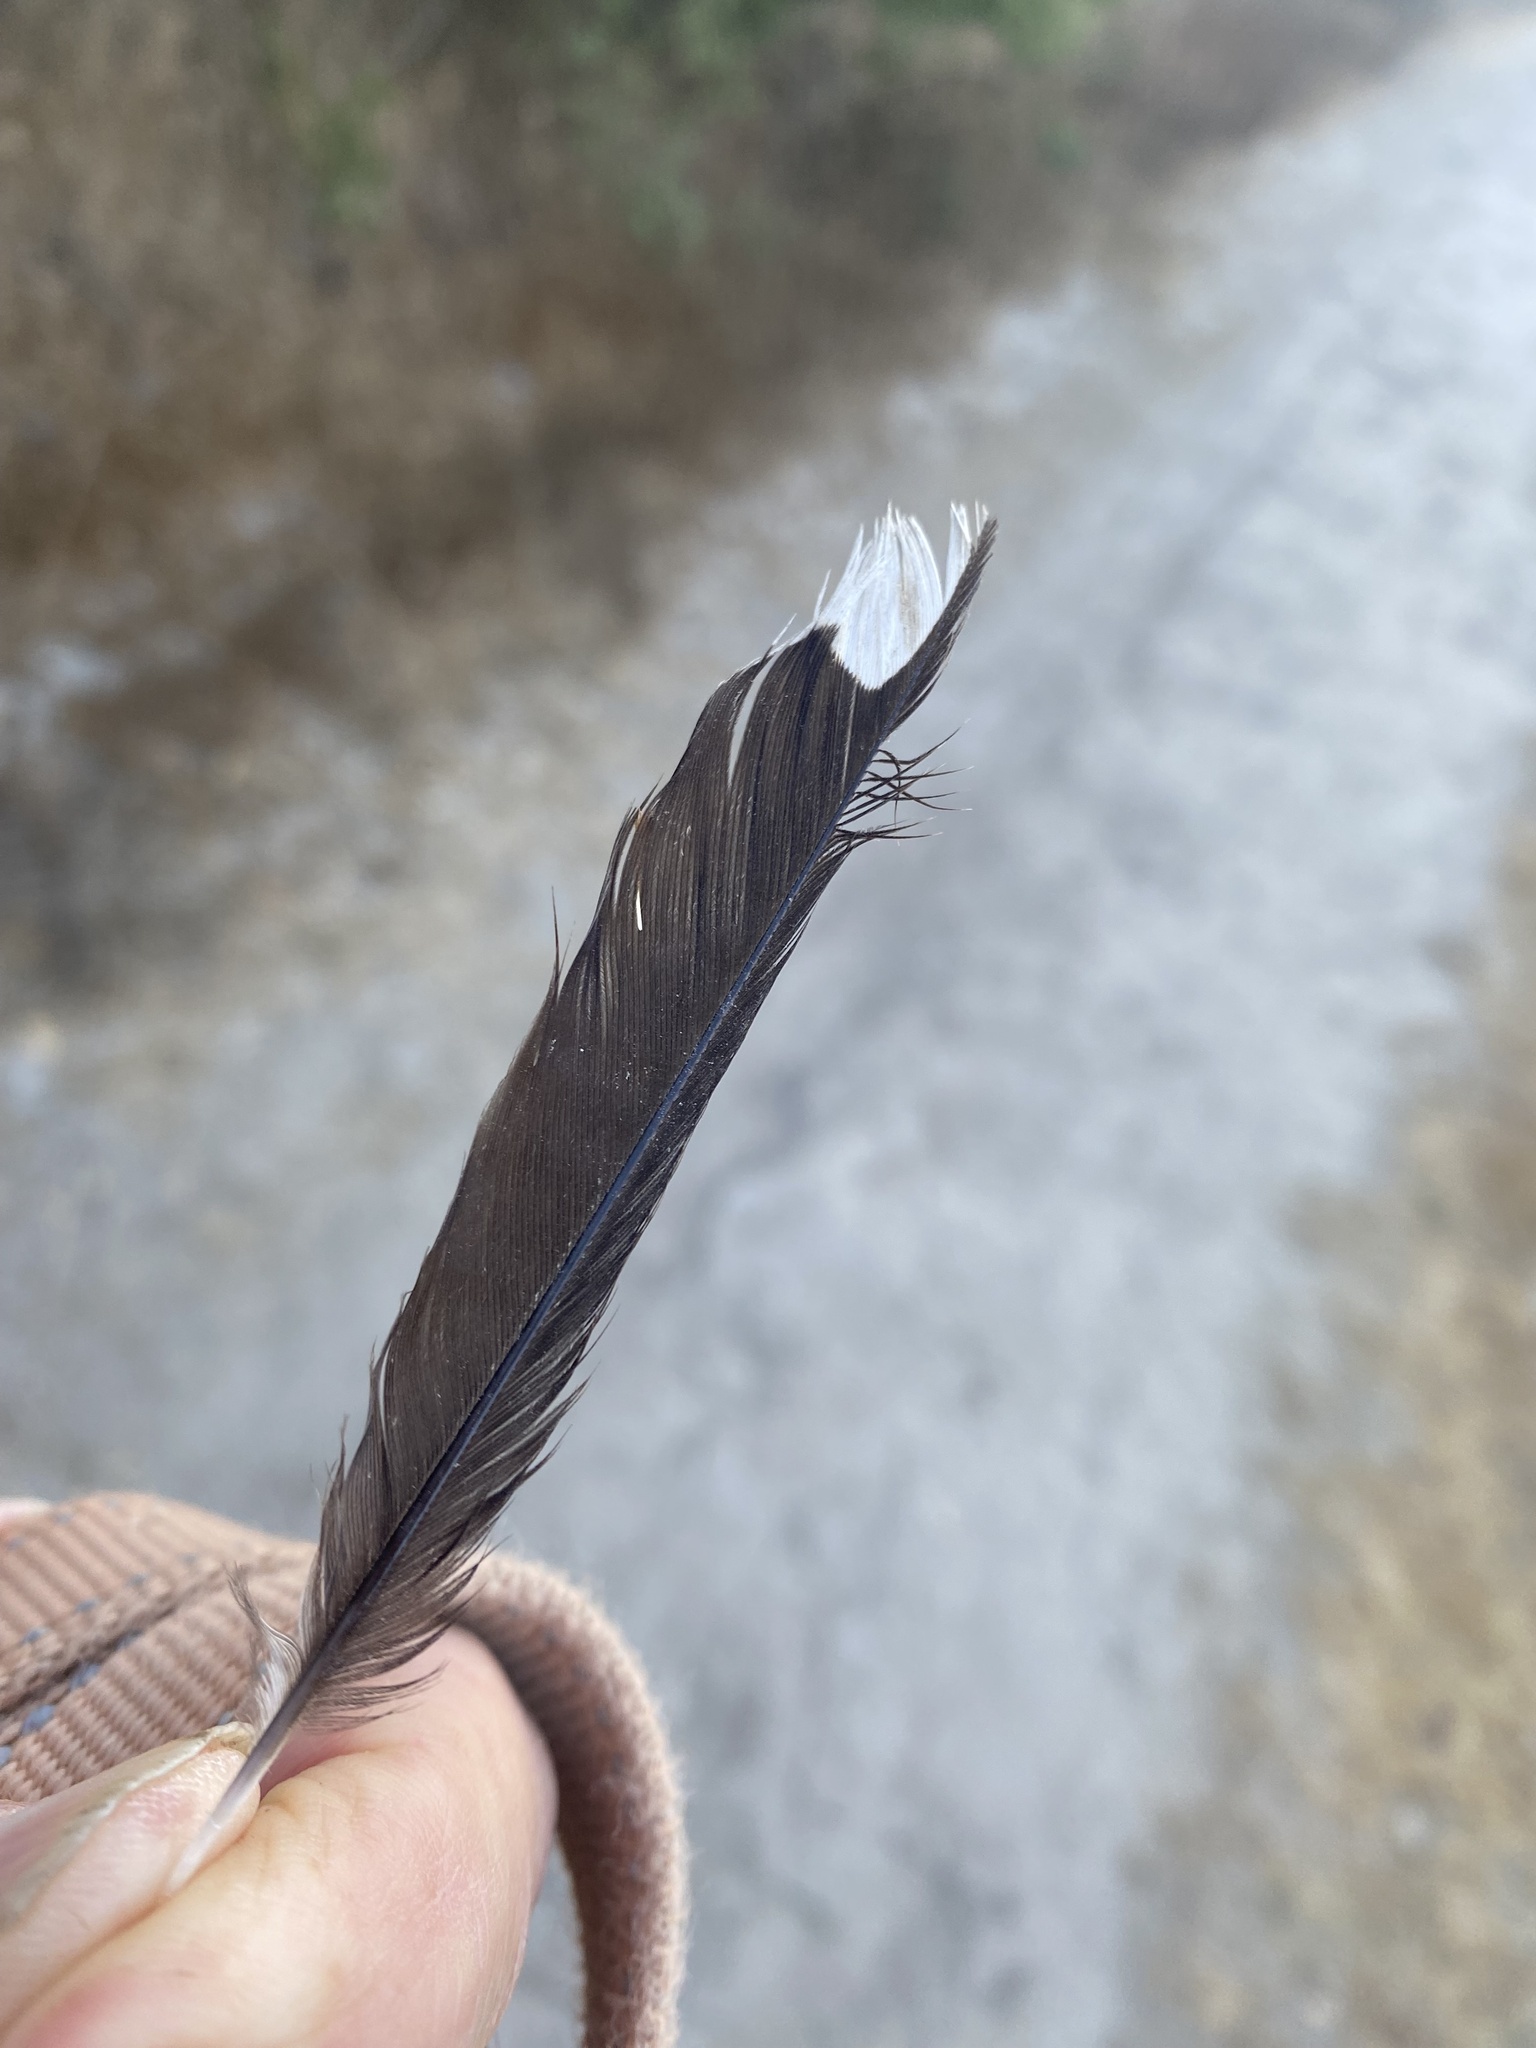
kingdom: Animalia
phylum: Chordata
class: Aves
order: Passeriformes
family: Passerellidae
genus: Pipilo
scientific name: Pipilo maculatus
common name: Spotted towhee
